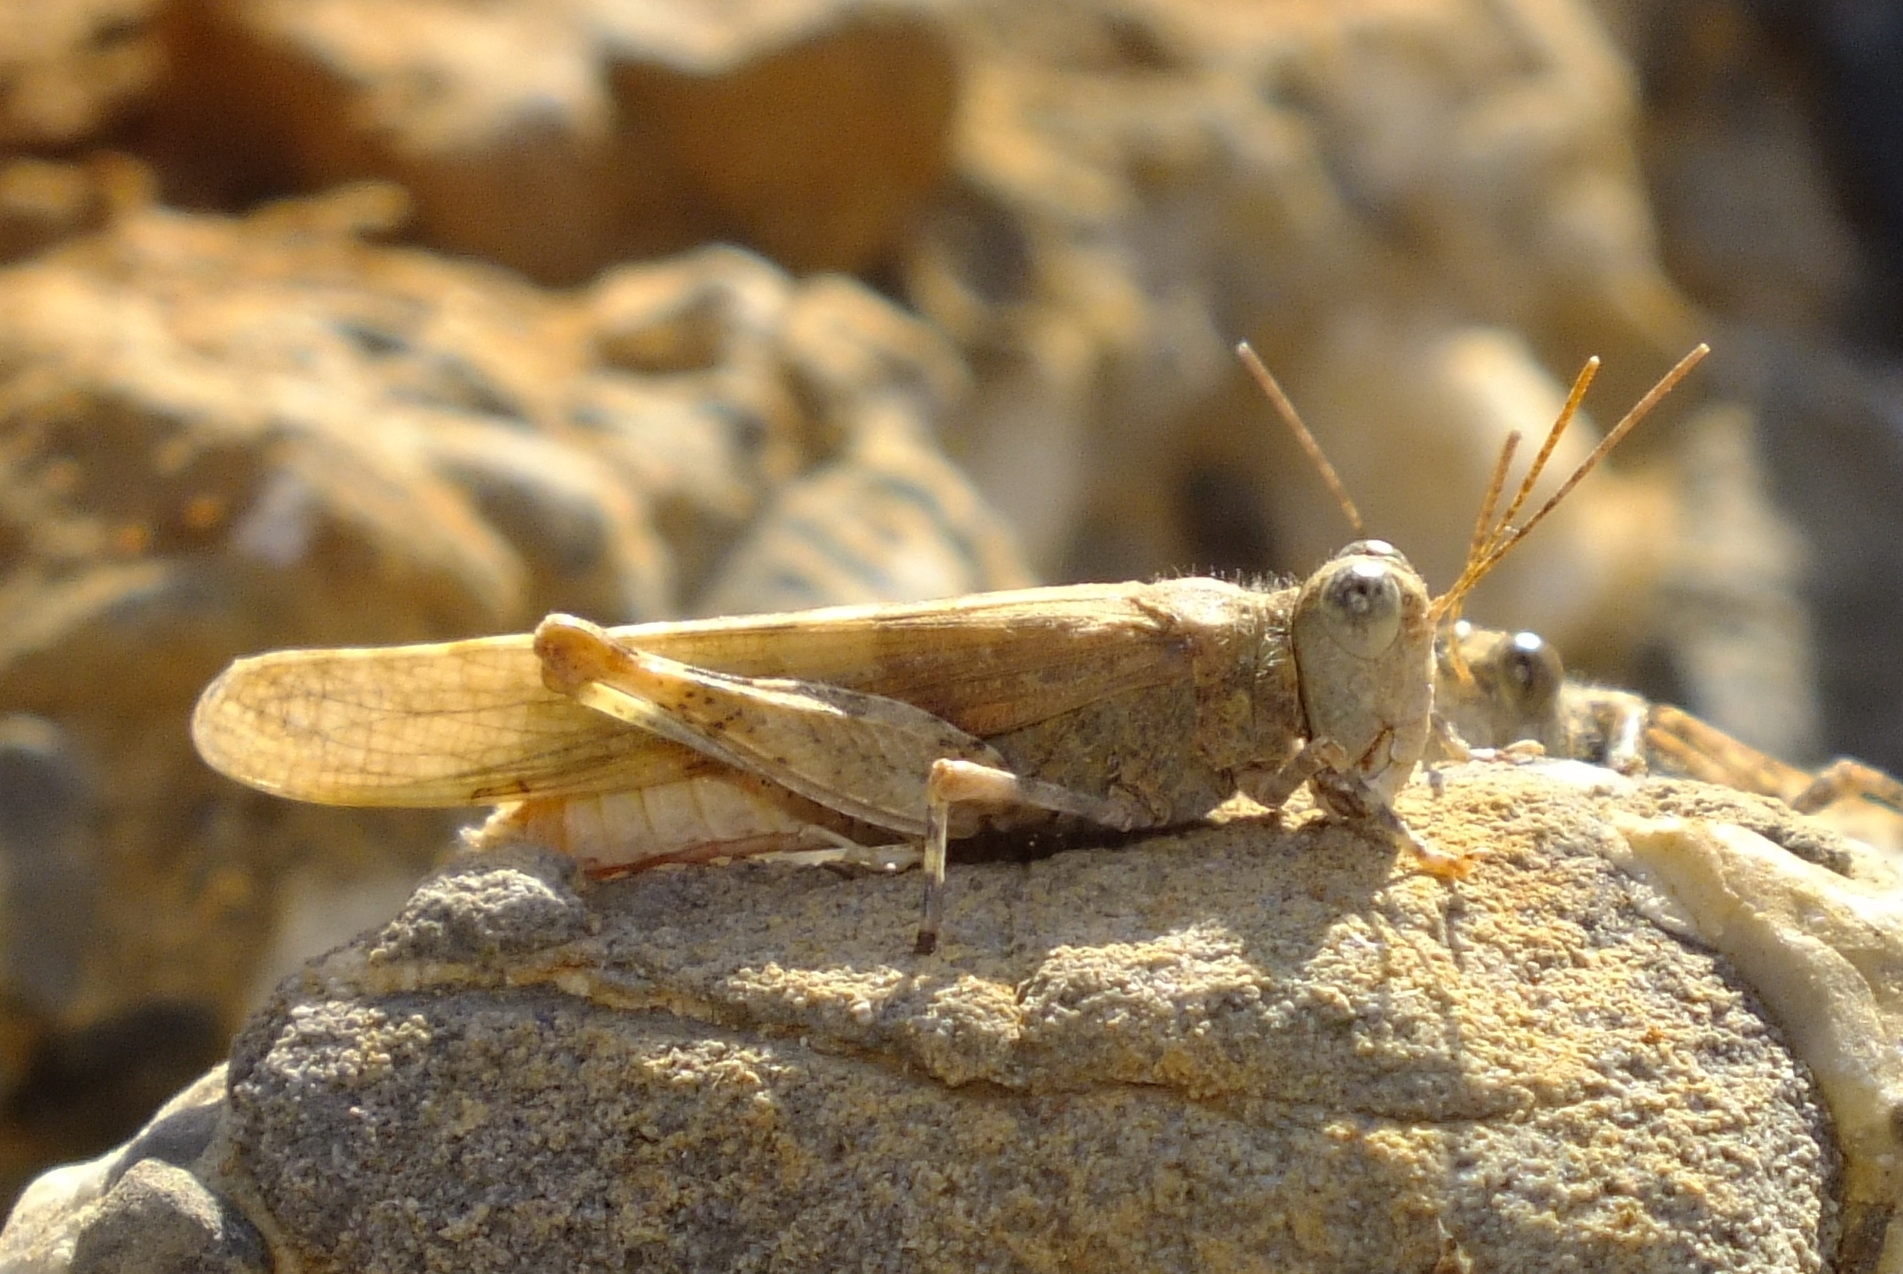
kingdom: Animalia
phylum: Arthropoda
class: Insecta
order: Orthoptera
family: Acrididae
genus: Sphingonotus
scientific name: Sphingonotus rubescens
